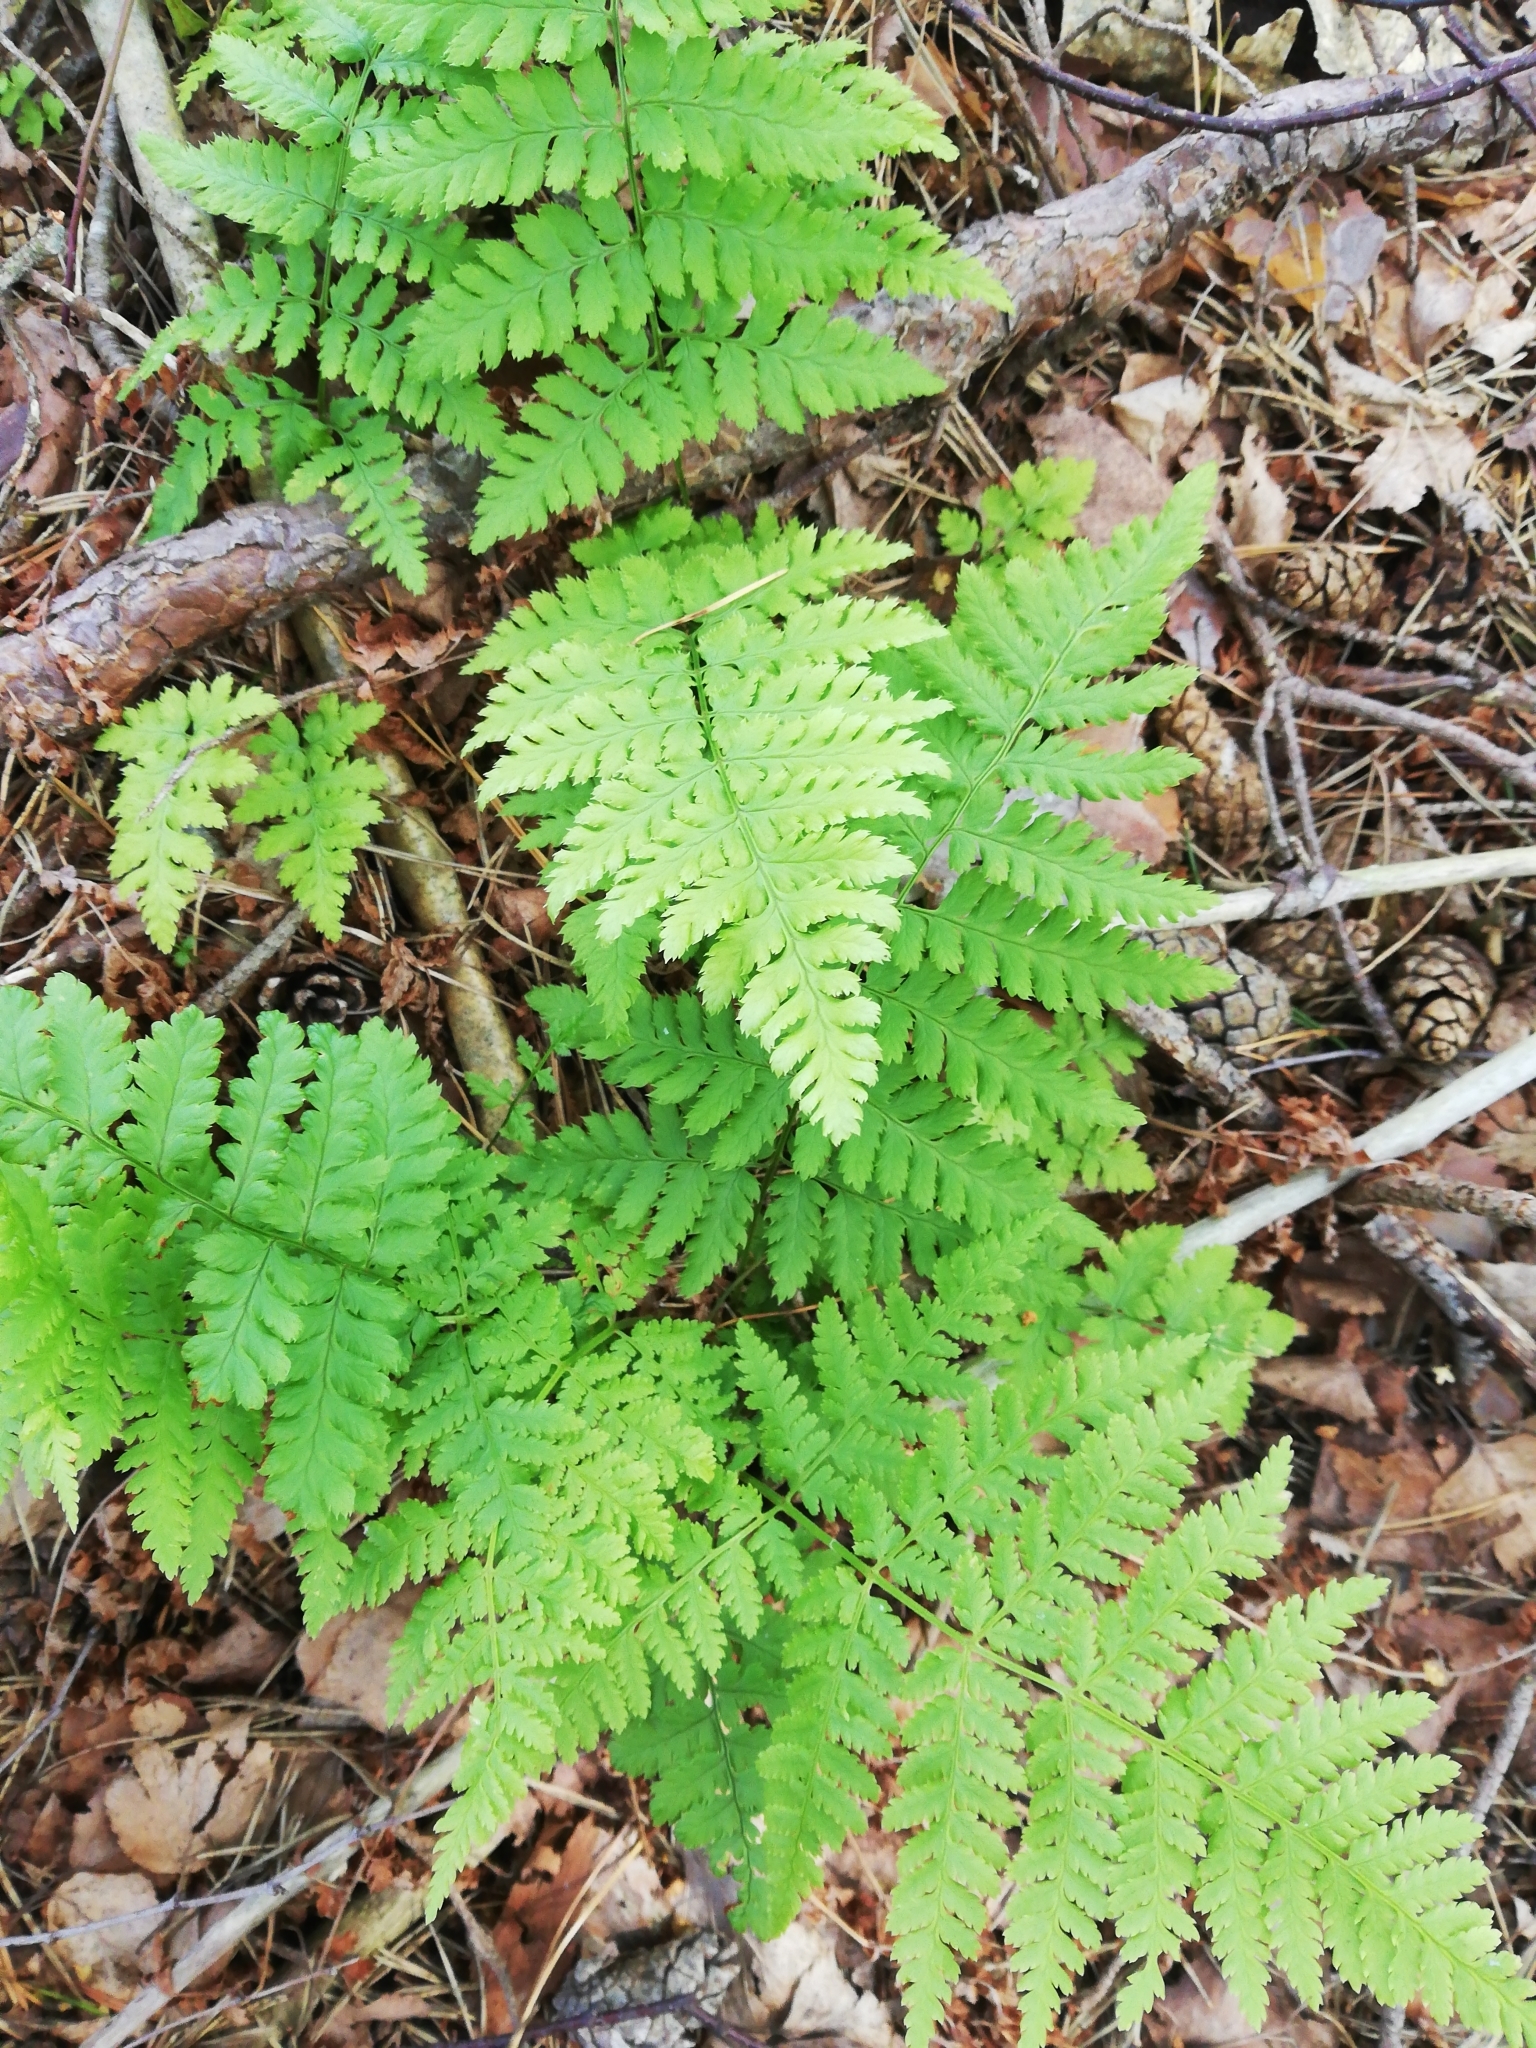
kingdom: Plantae
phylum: Tracheophyta
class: Polypodiopsida
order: Polypodiales
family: Dryopteridaceae
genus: Dryopteris
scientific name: Dryopteris carthusiana
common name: Narrow buckler-fern
